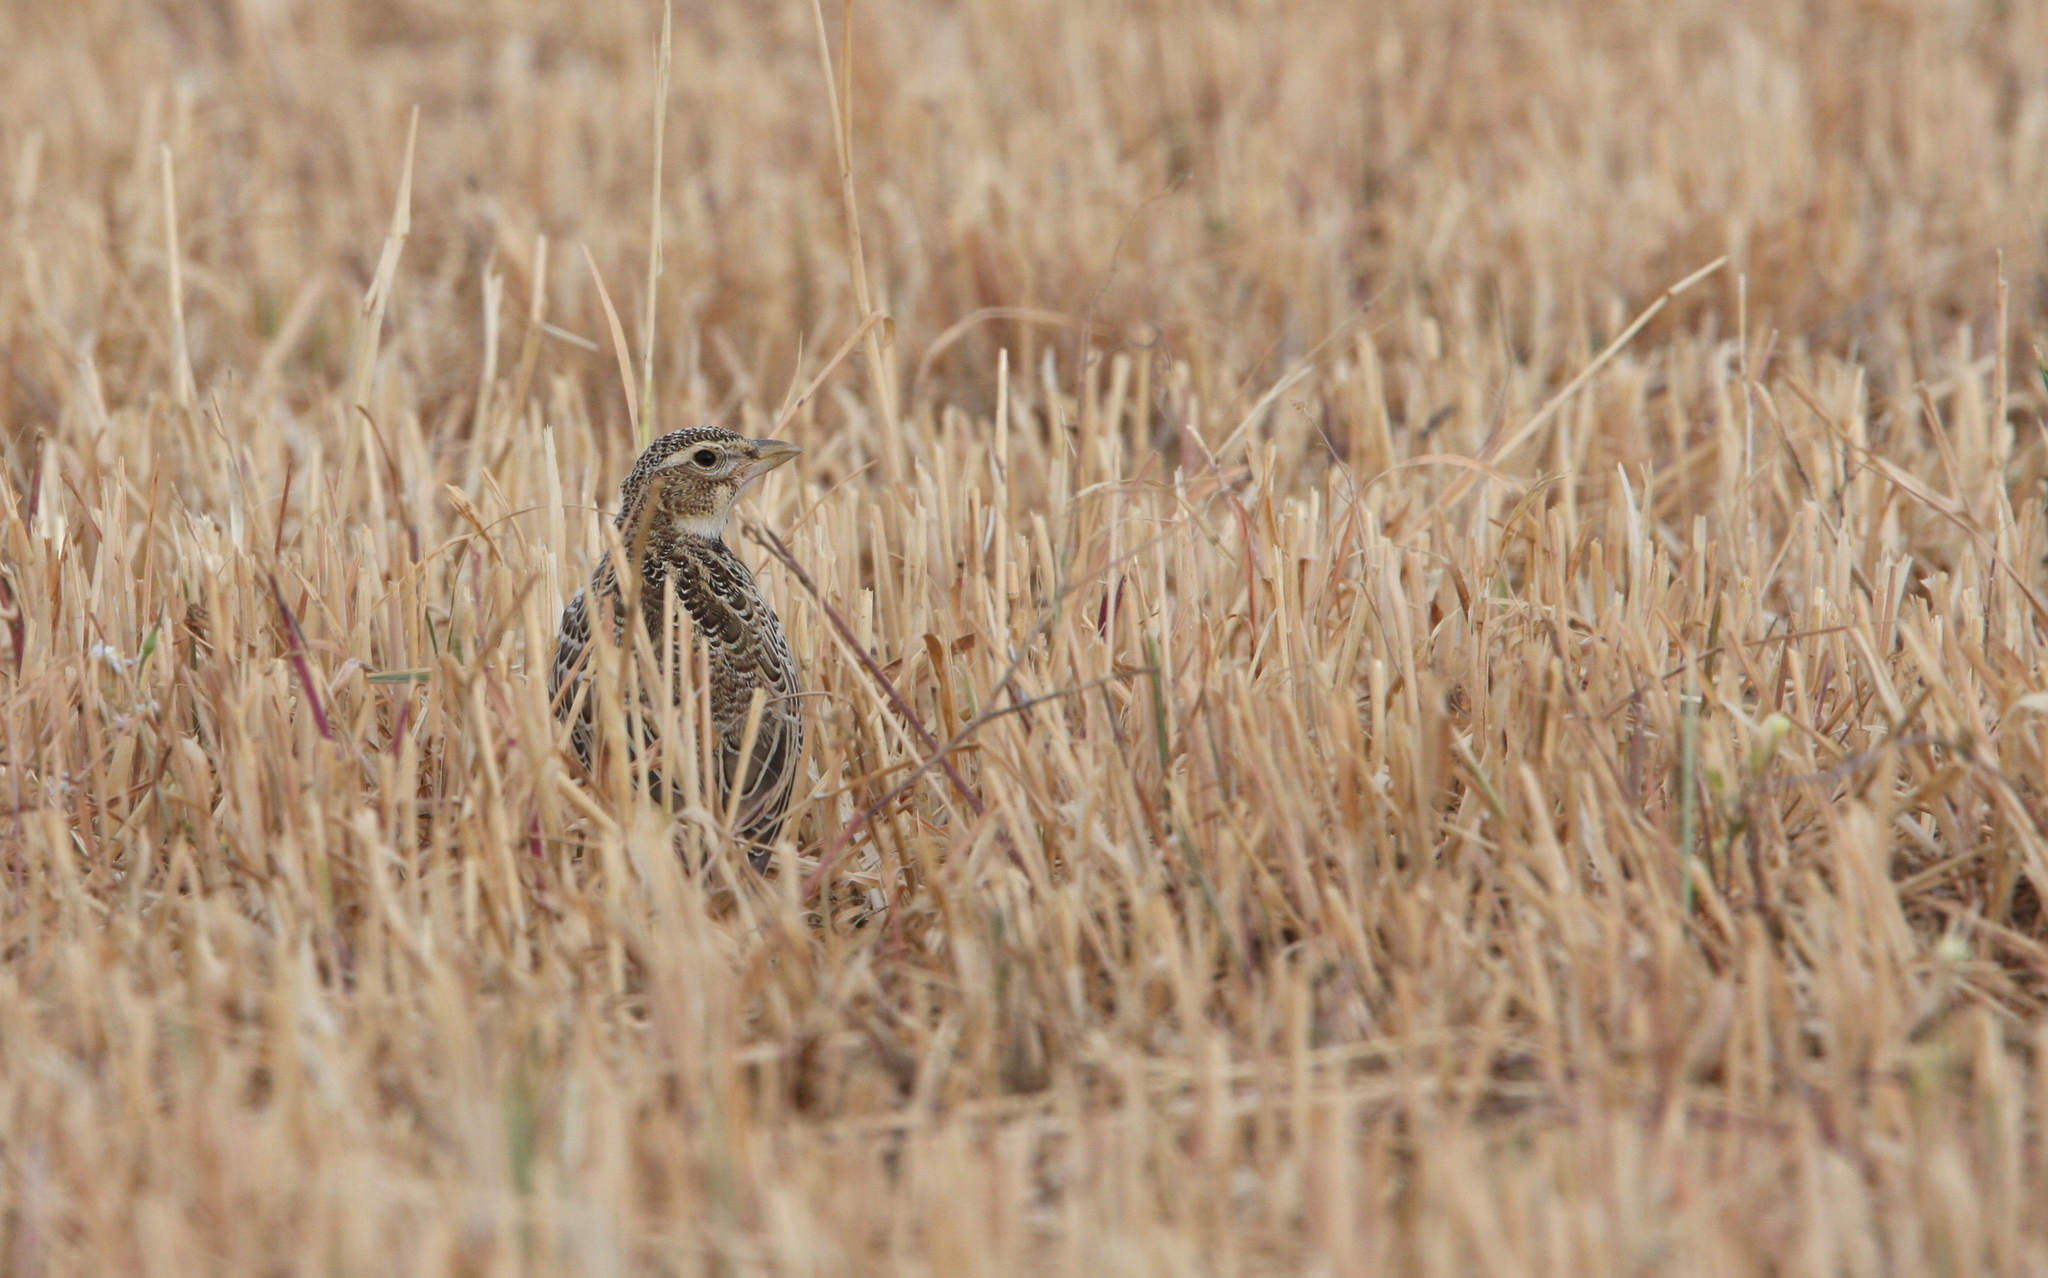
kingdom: Animalia
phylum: Chordata
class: Aves
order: Passeriformes
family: Alaudidae
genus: Melanocorypha
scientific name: Melanocorypha calandra
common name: Calandra lark
